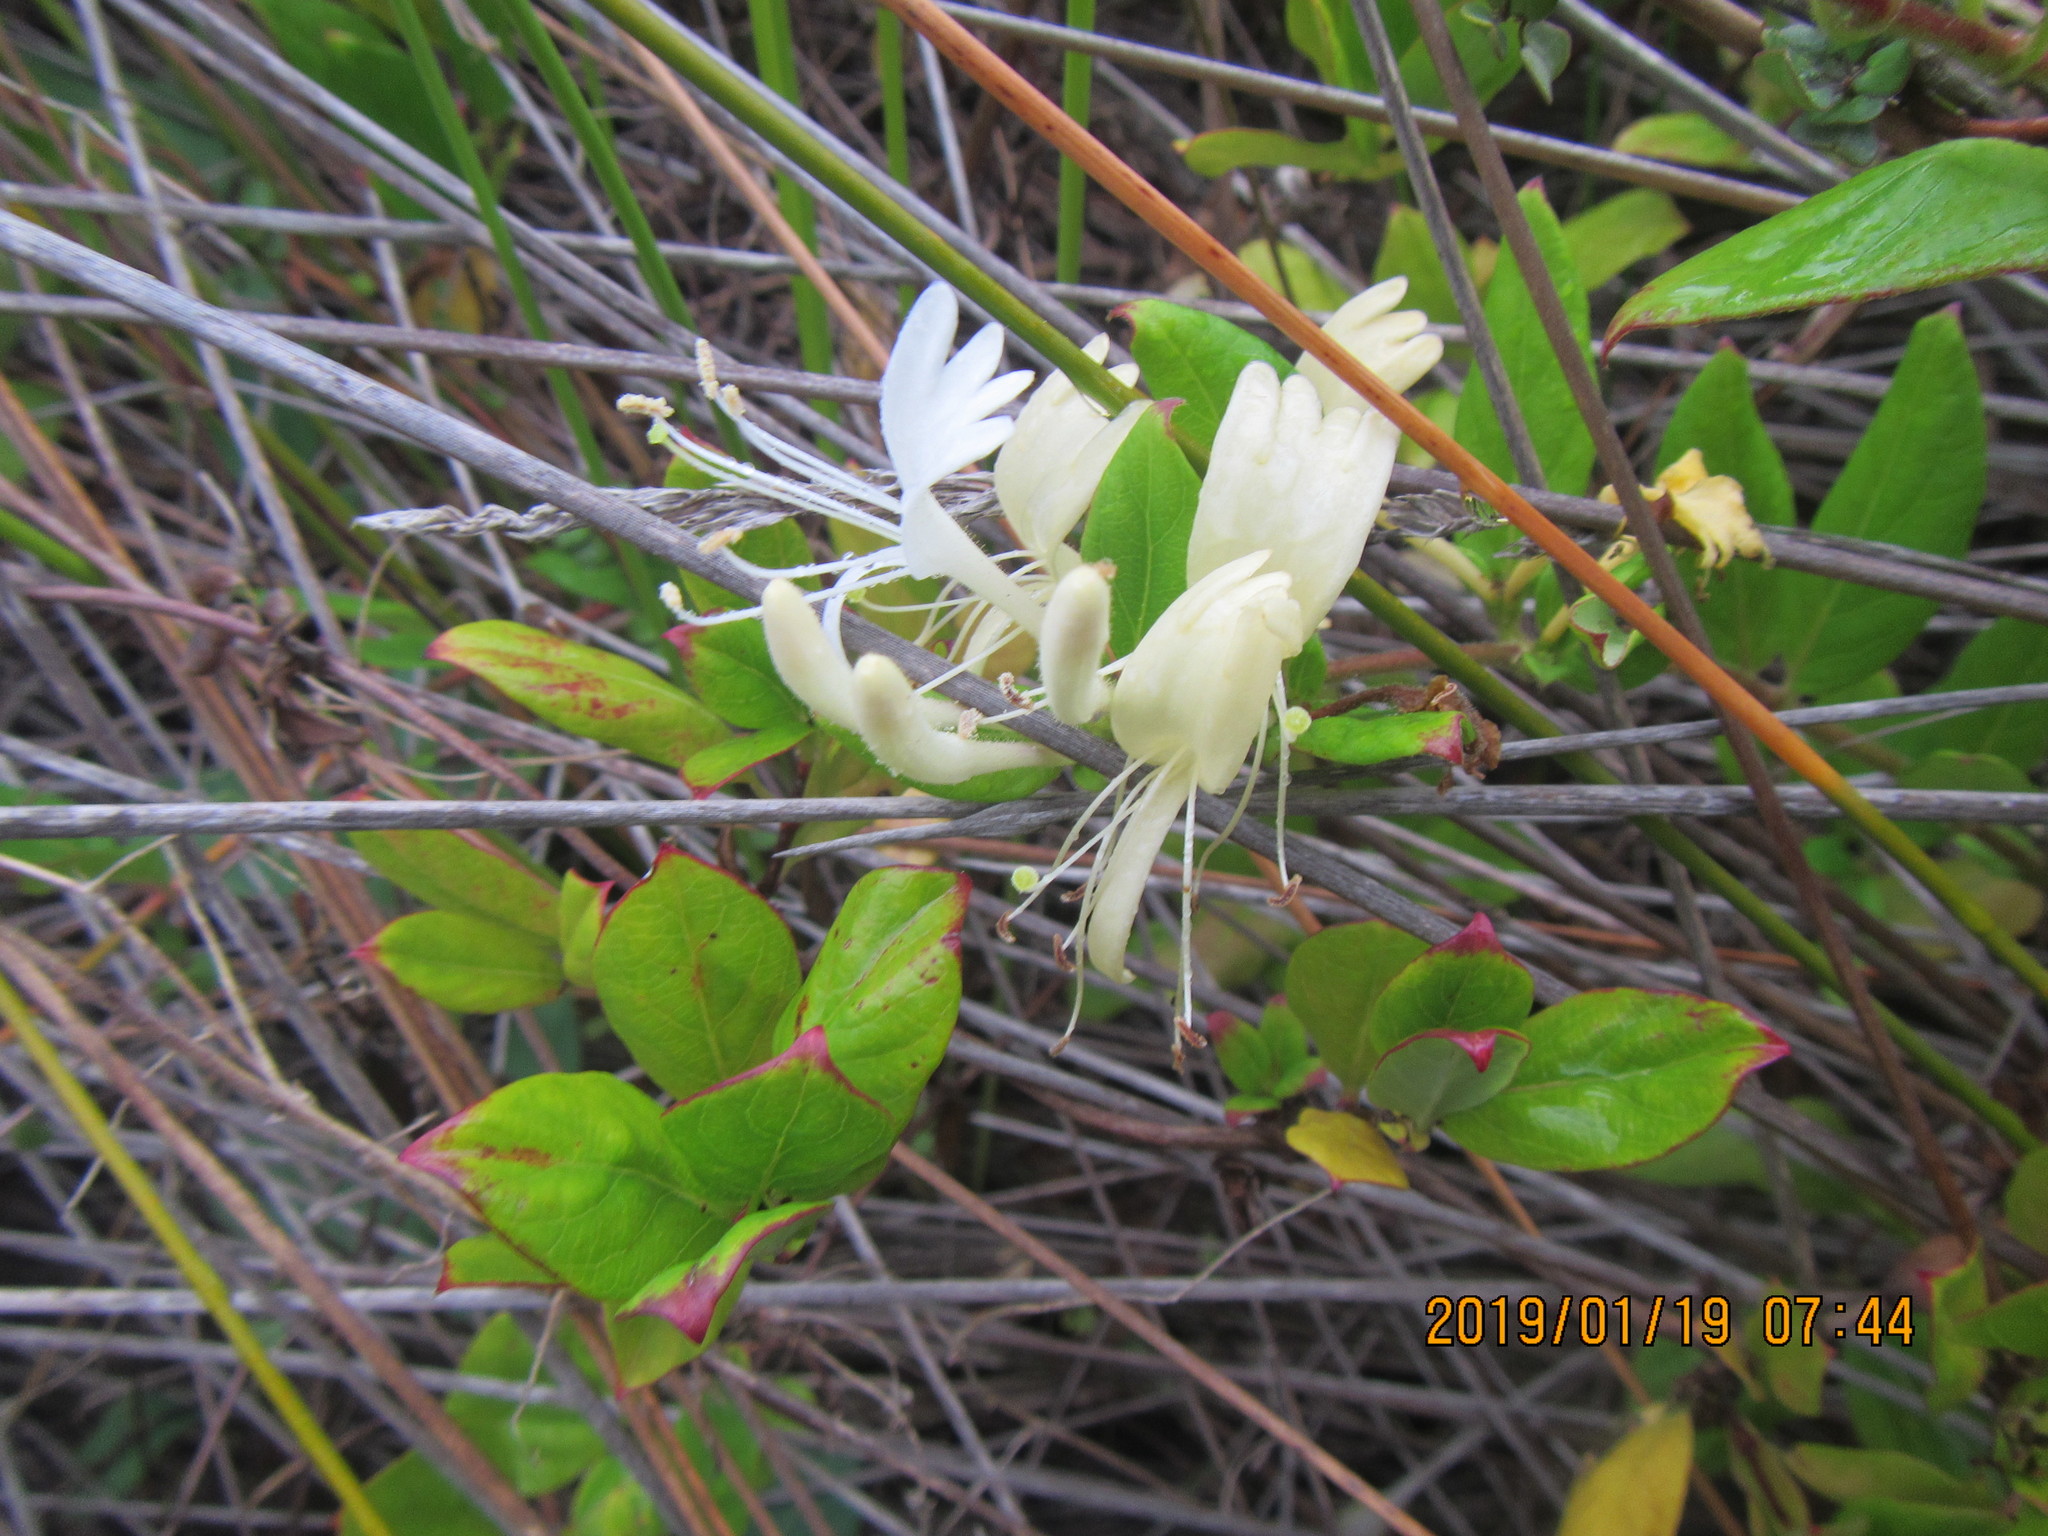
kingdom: Plantae
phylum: Tracheophyta
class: Magnoliopsida
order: Dipsacales
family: Caprifoliaceae
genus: Lonicera
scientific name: Lonicera japonica
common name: Japanese honeysuckle
